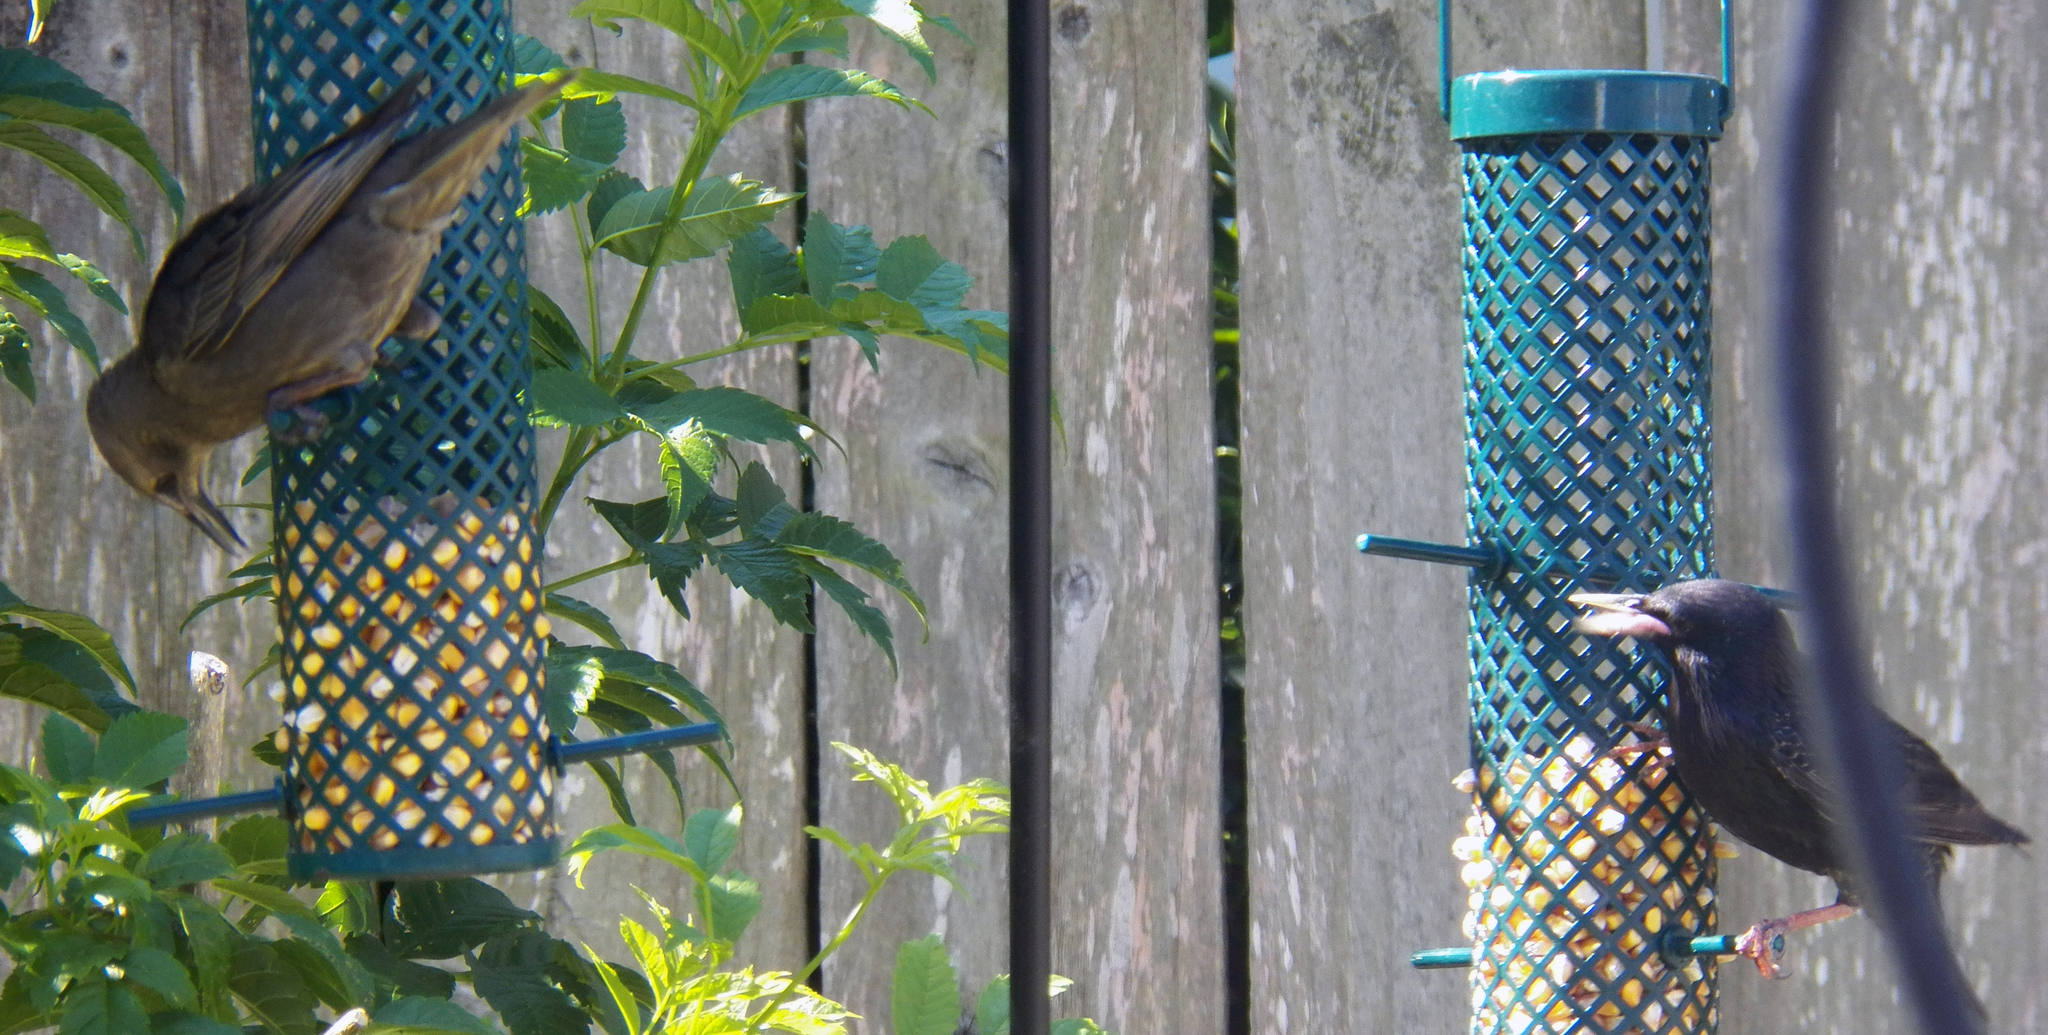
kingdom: Animalia
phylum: Chordata
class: Aves
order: Passeriformes
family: Sturnidae
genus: Sturnus
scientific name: Sturnus vulgaris
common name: Common starling
